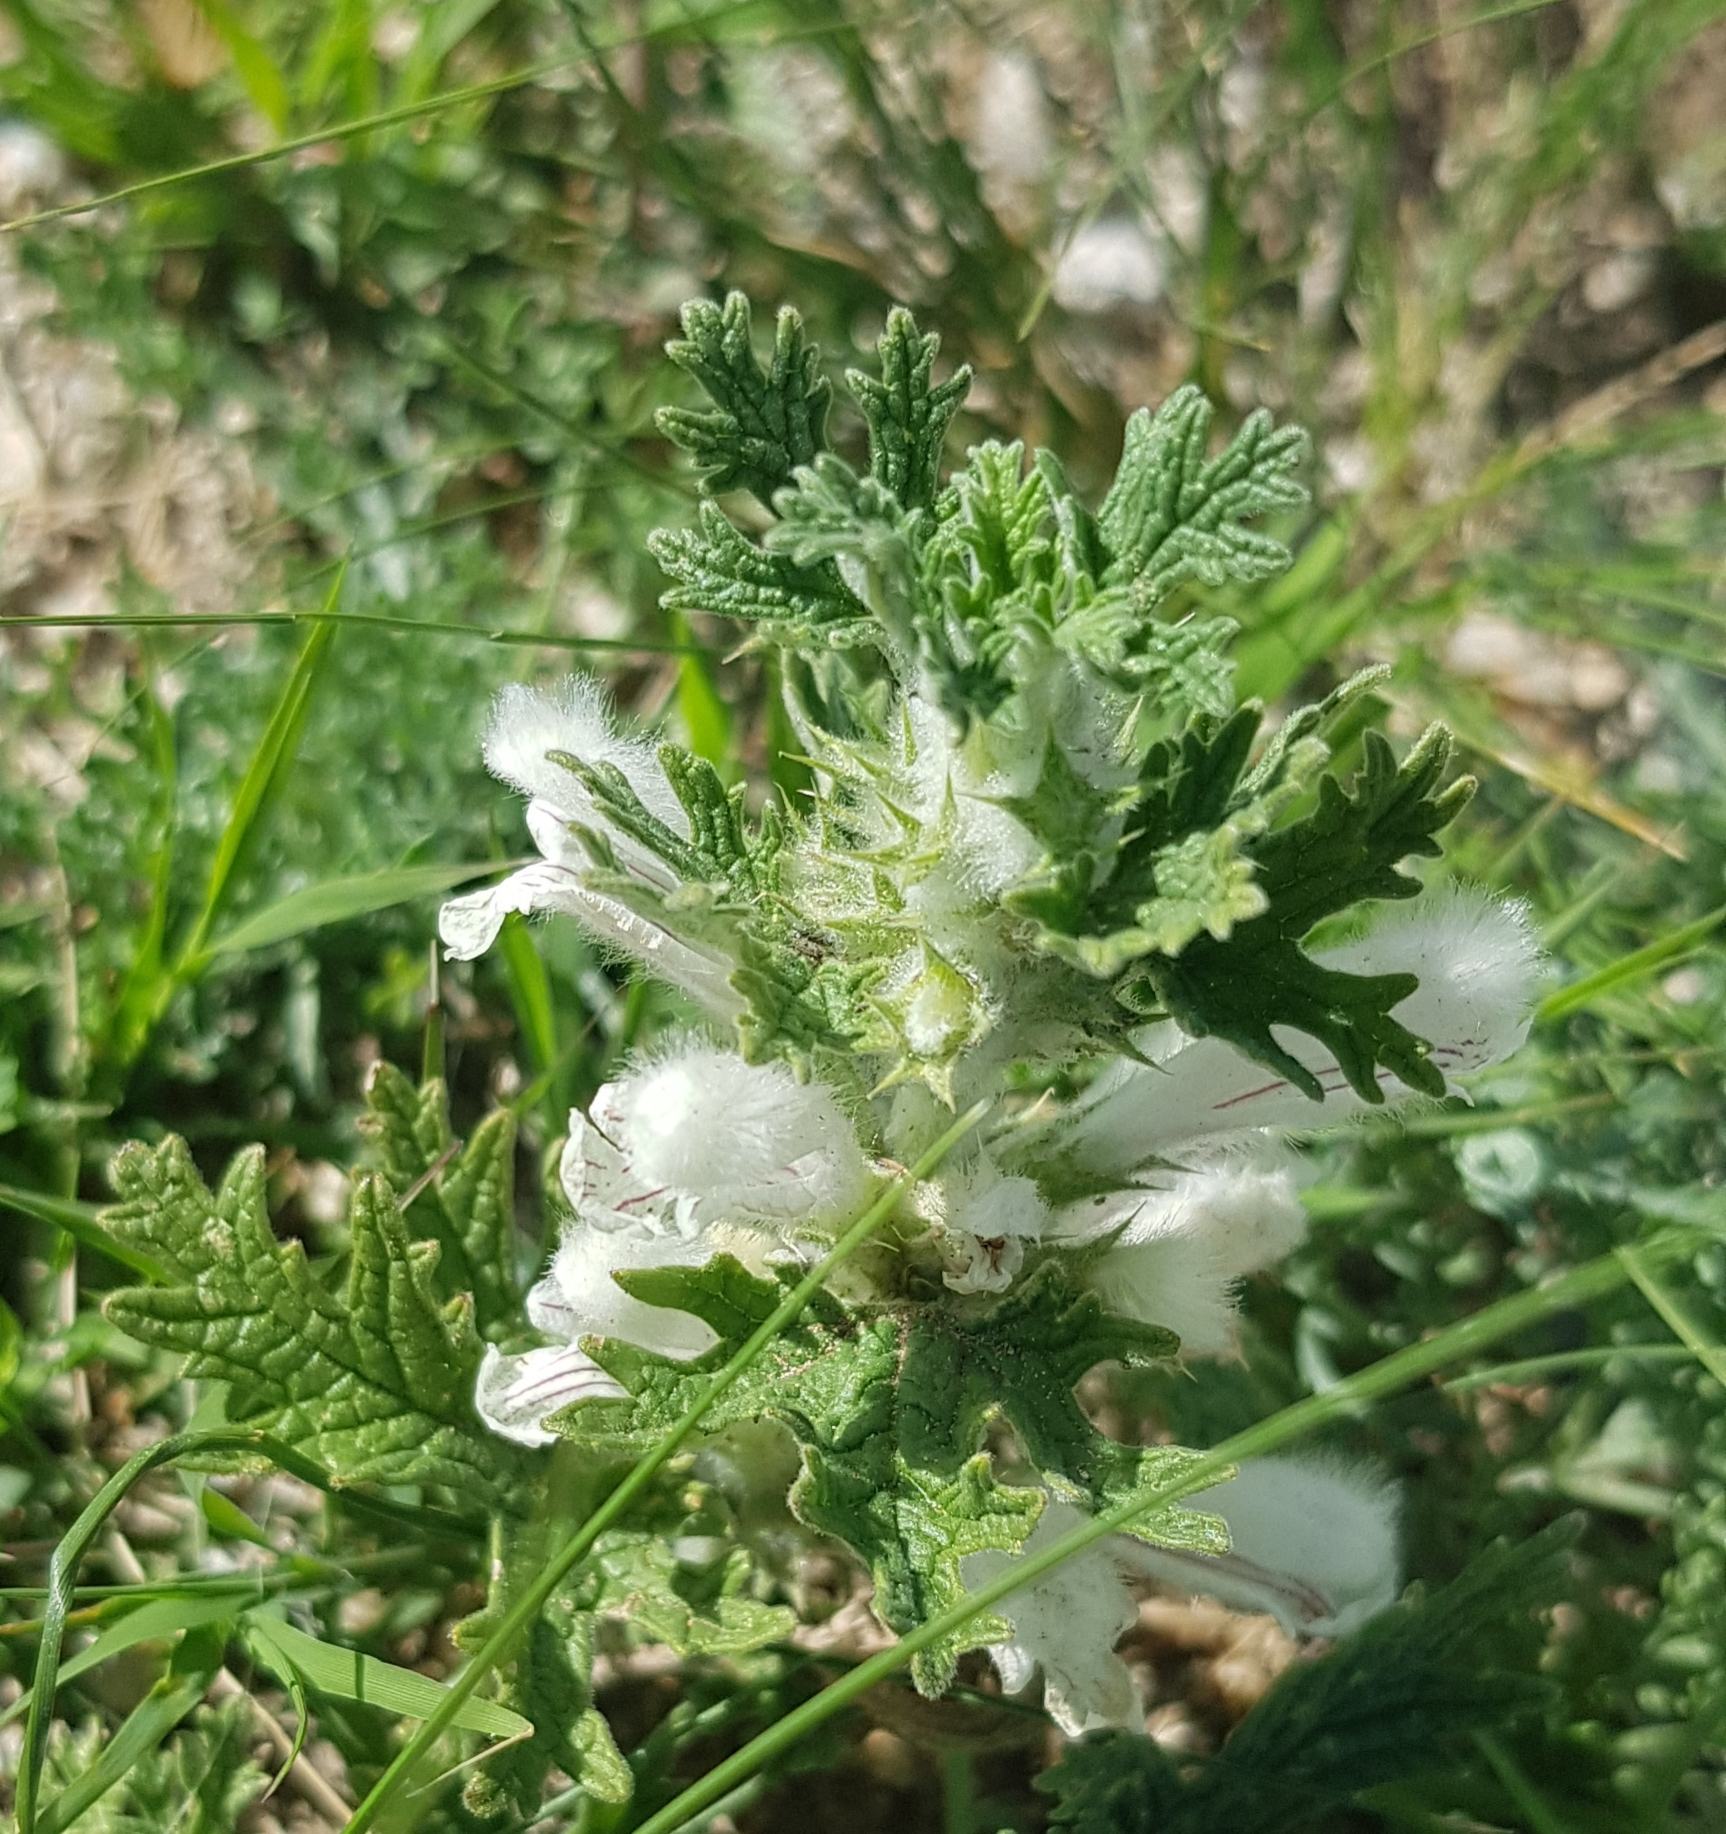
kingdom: Plantae
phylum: Tracheophyta
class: Magnoliopsida
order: Lamiales
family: Lamiaceae
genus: Panzerina
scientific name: Panzerina lanata
